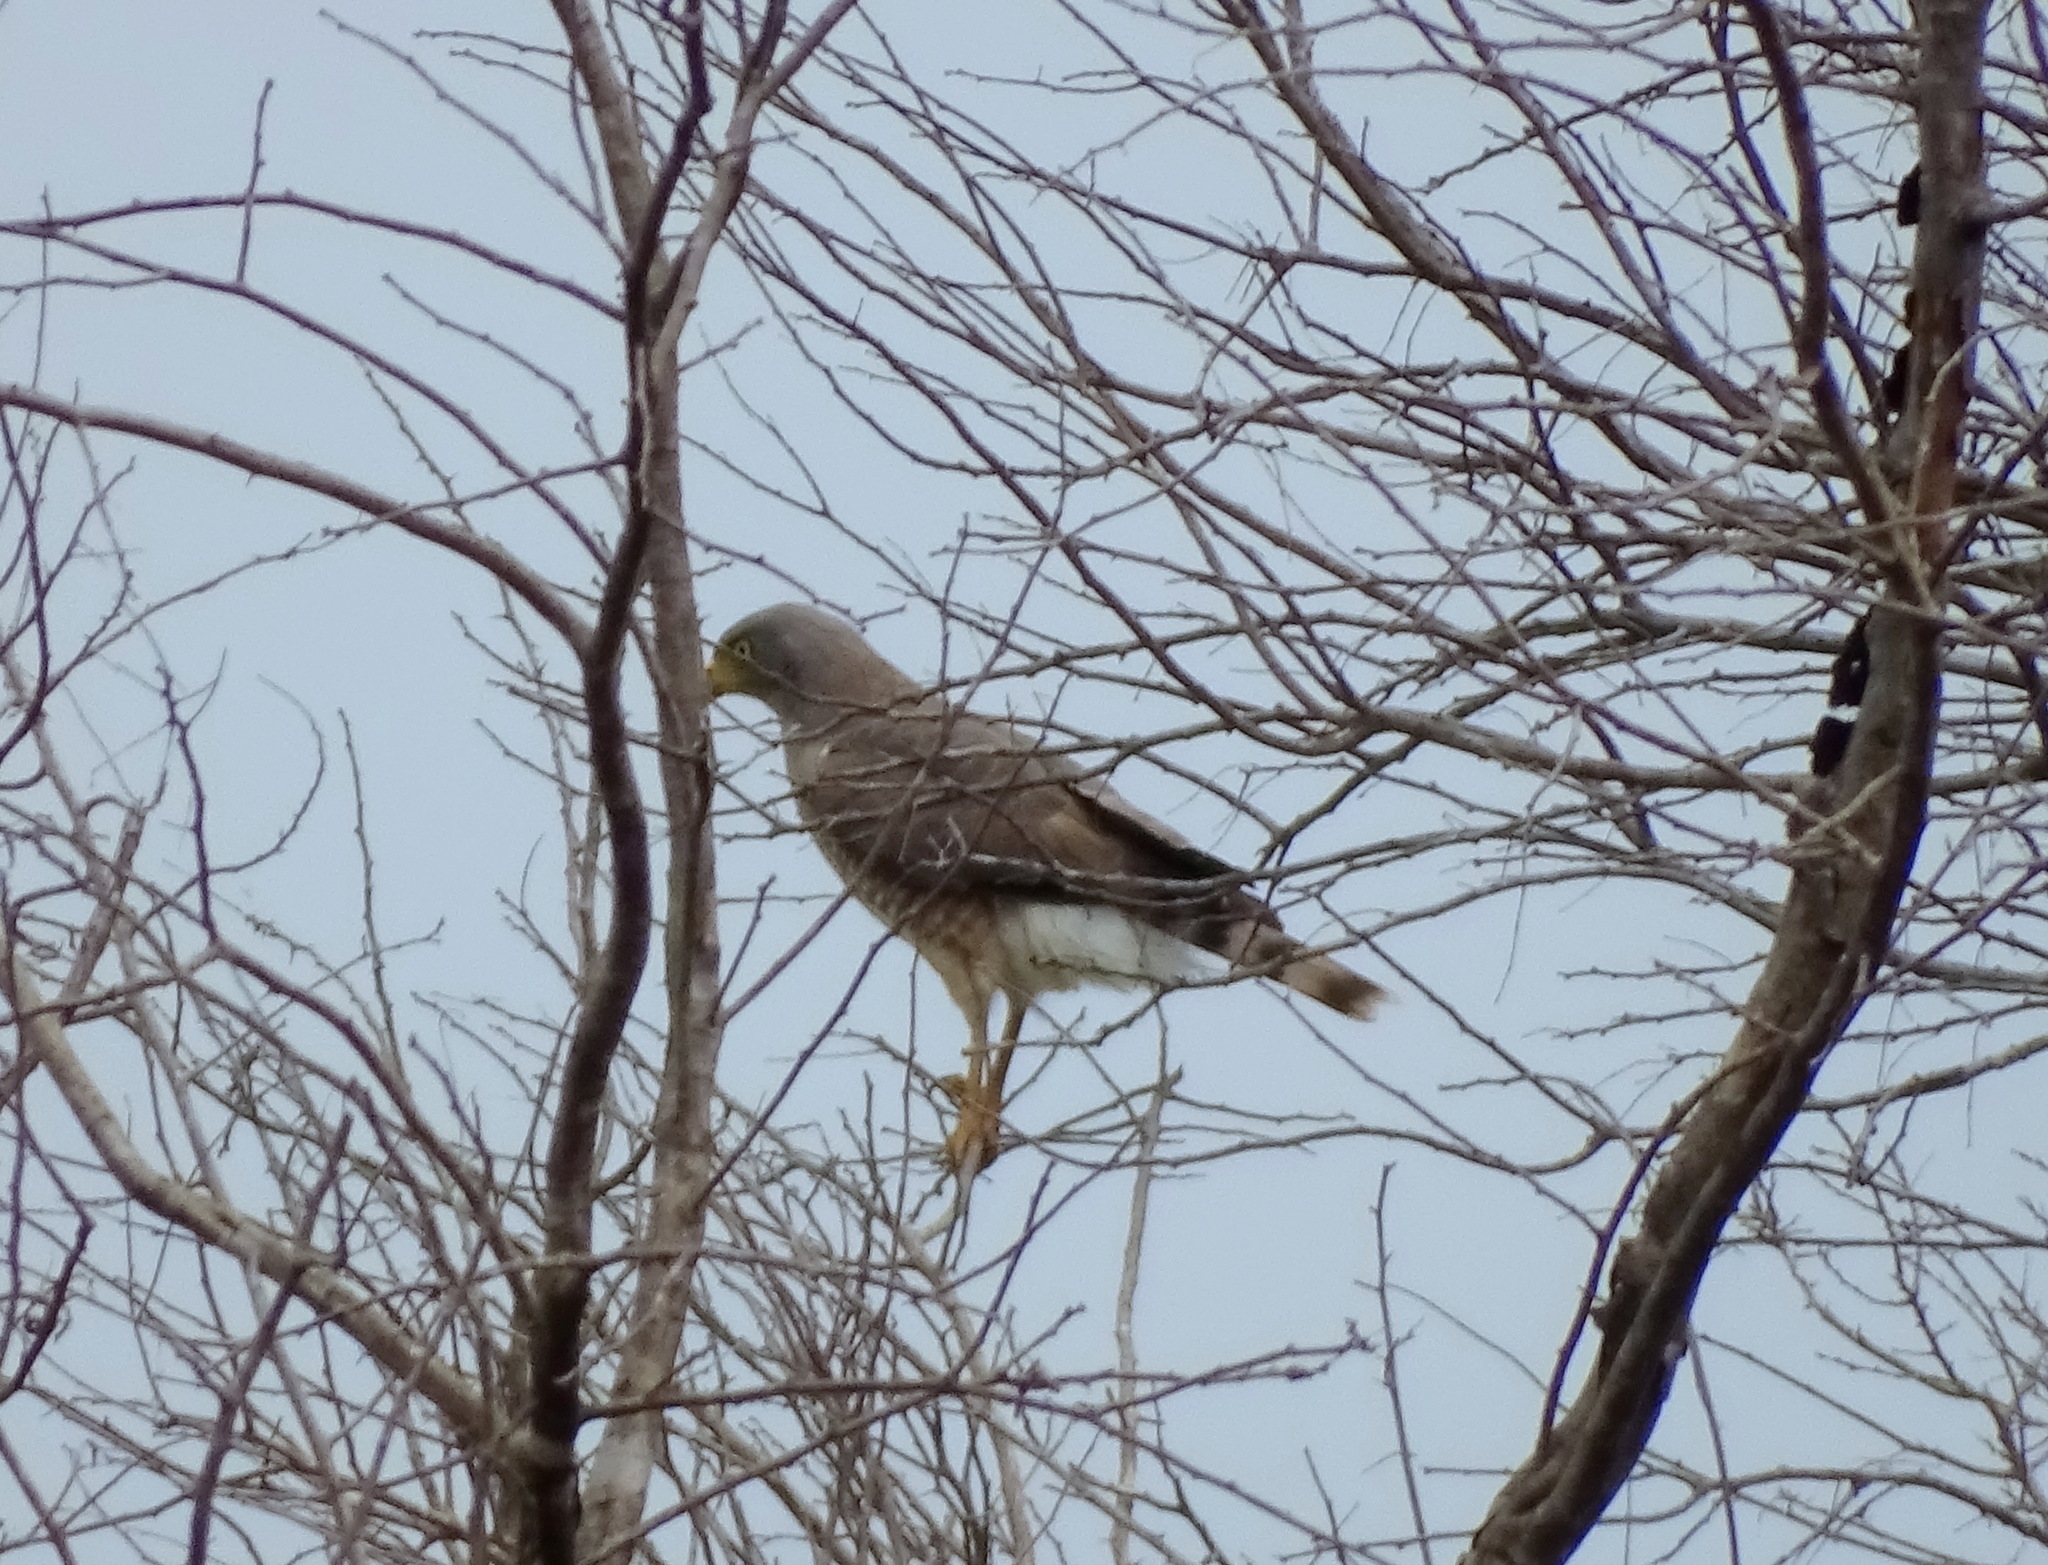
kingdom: Animalia
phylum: Chordata
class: Aves
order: Accipitriformes
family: Accipitridae
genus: Rupornis
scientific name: Rupornis magnirostris
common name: Roadside hawk
